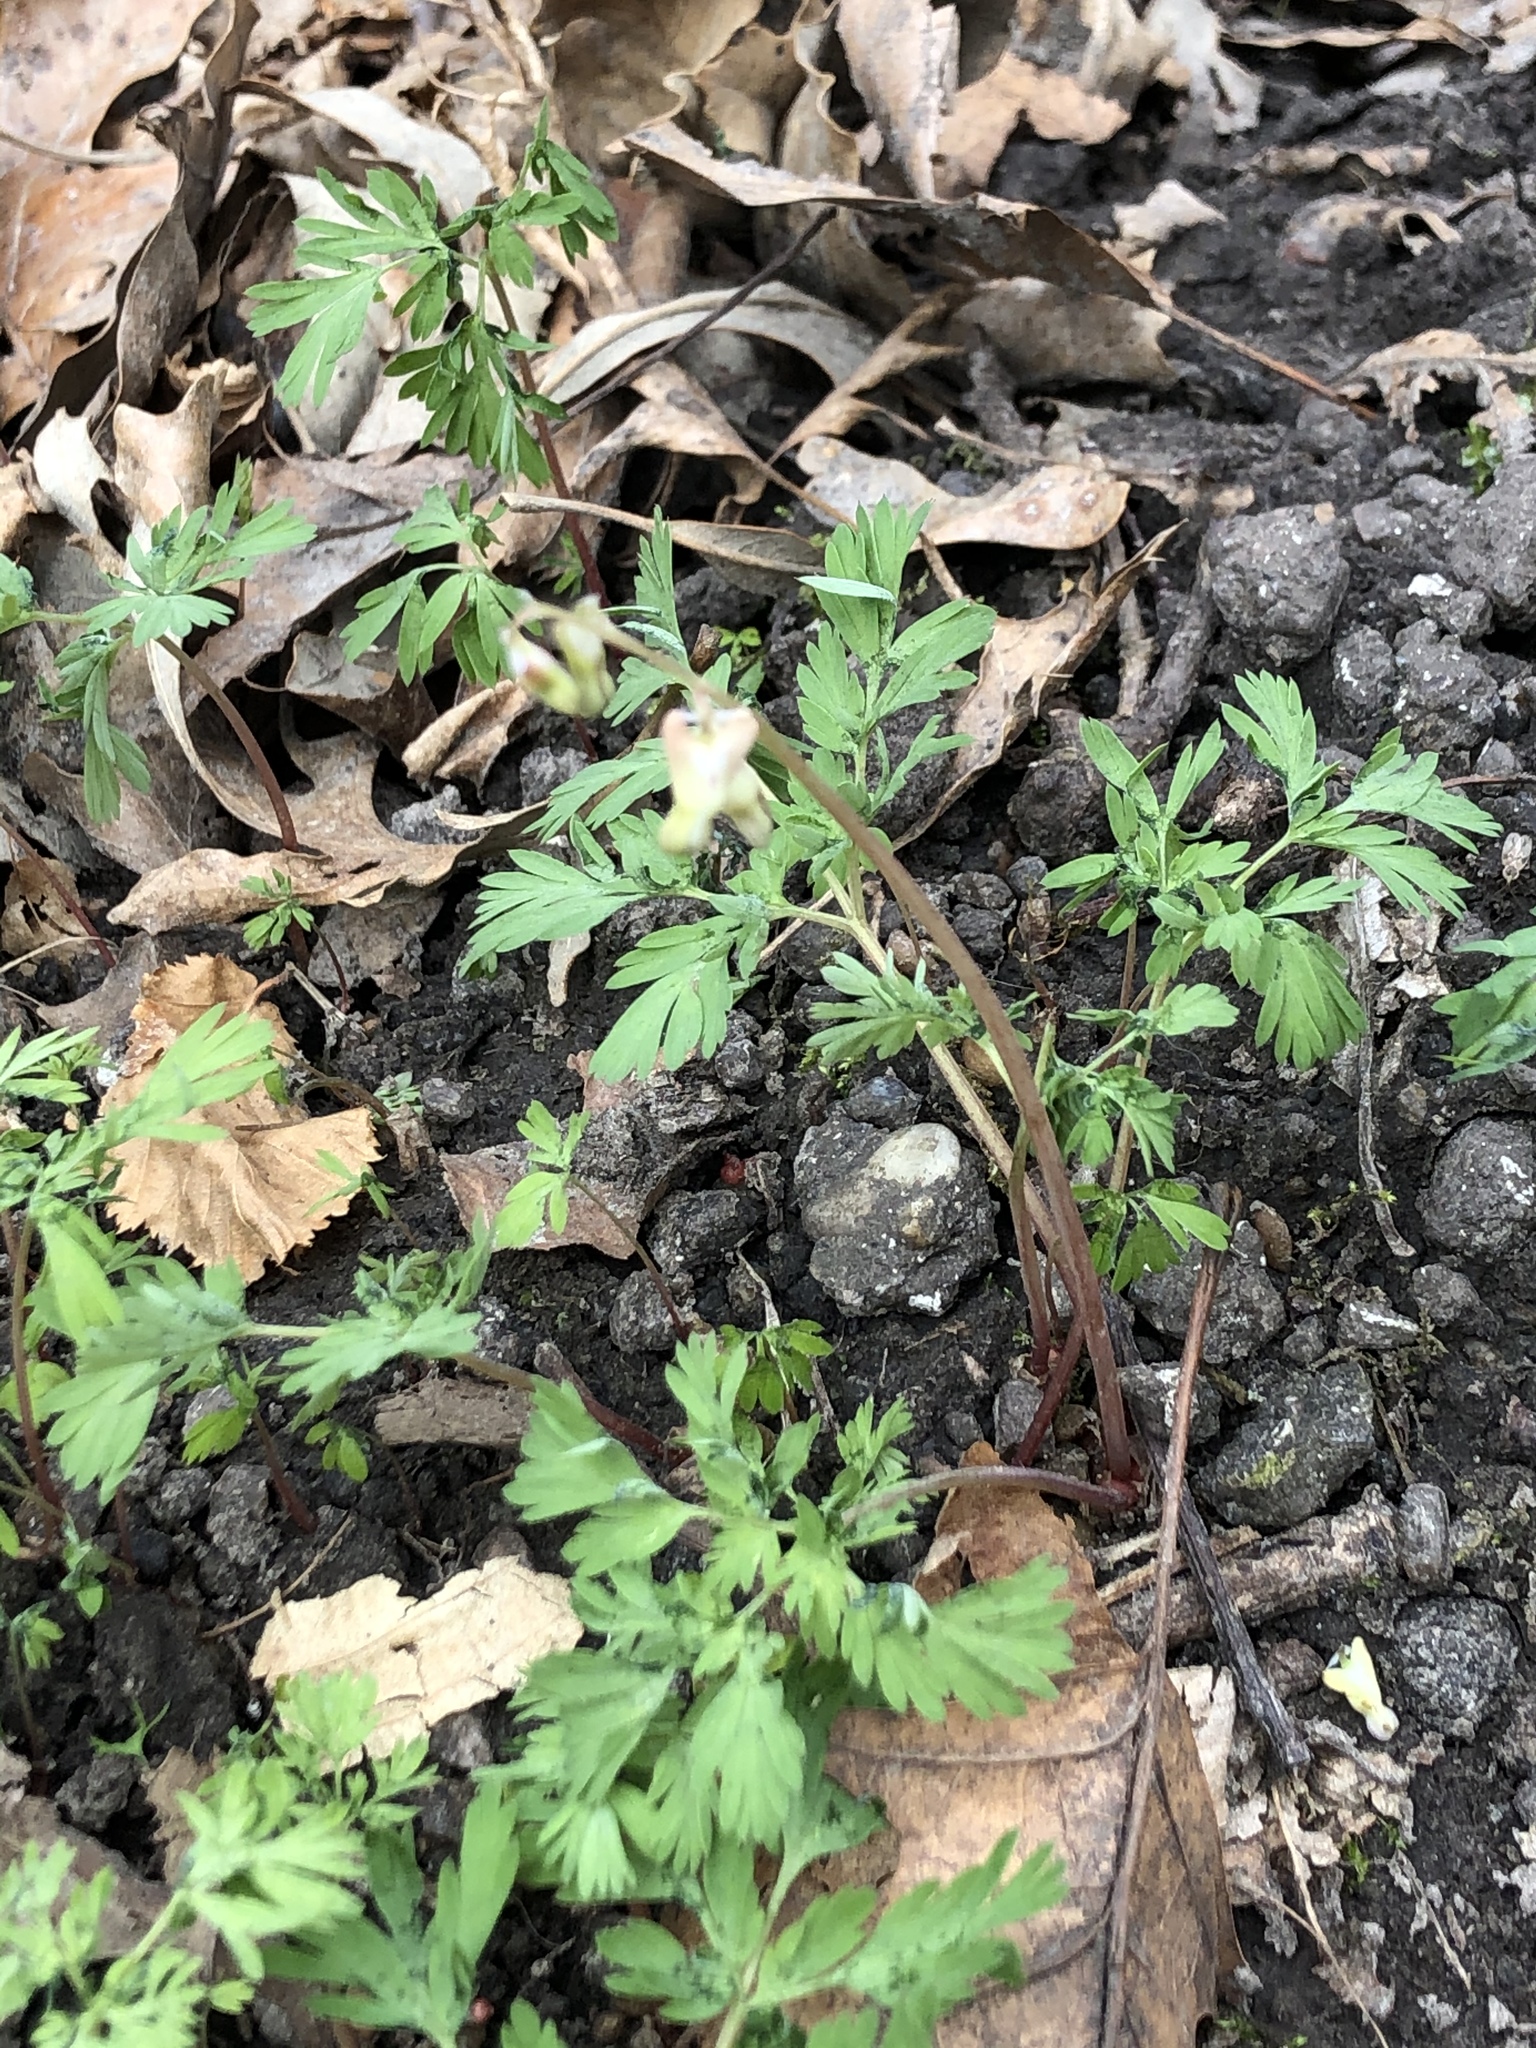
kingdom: Plantae
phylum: Tracheophyta
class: Magnoliopsida
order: Ranunculales
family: Papaveraceae
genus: Dicentra
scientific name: Dicentra cucullaria
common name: Dutchman's breeches
